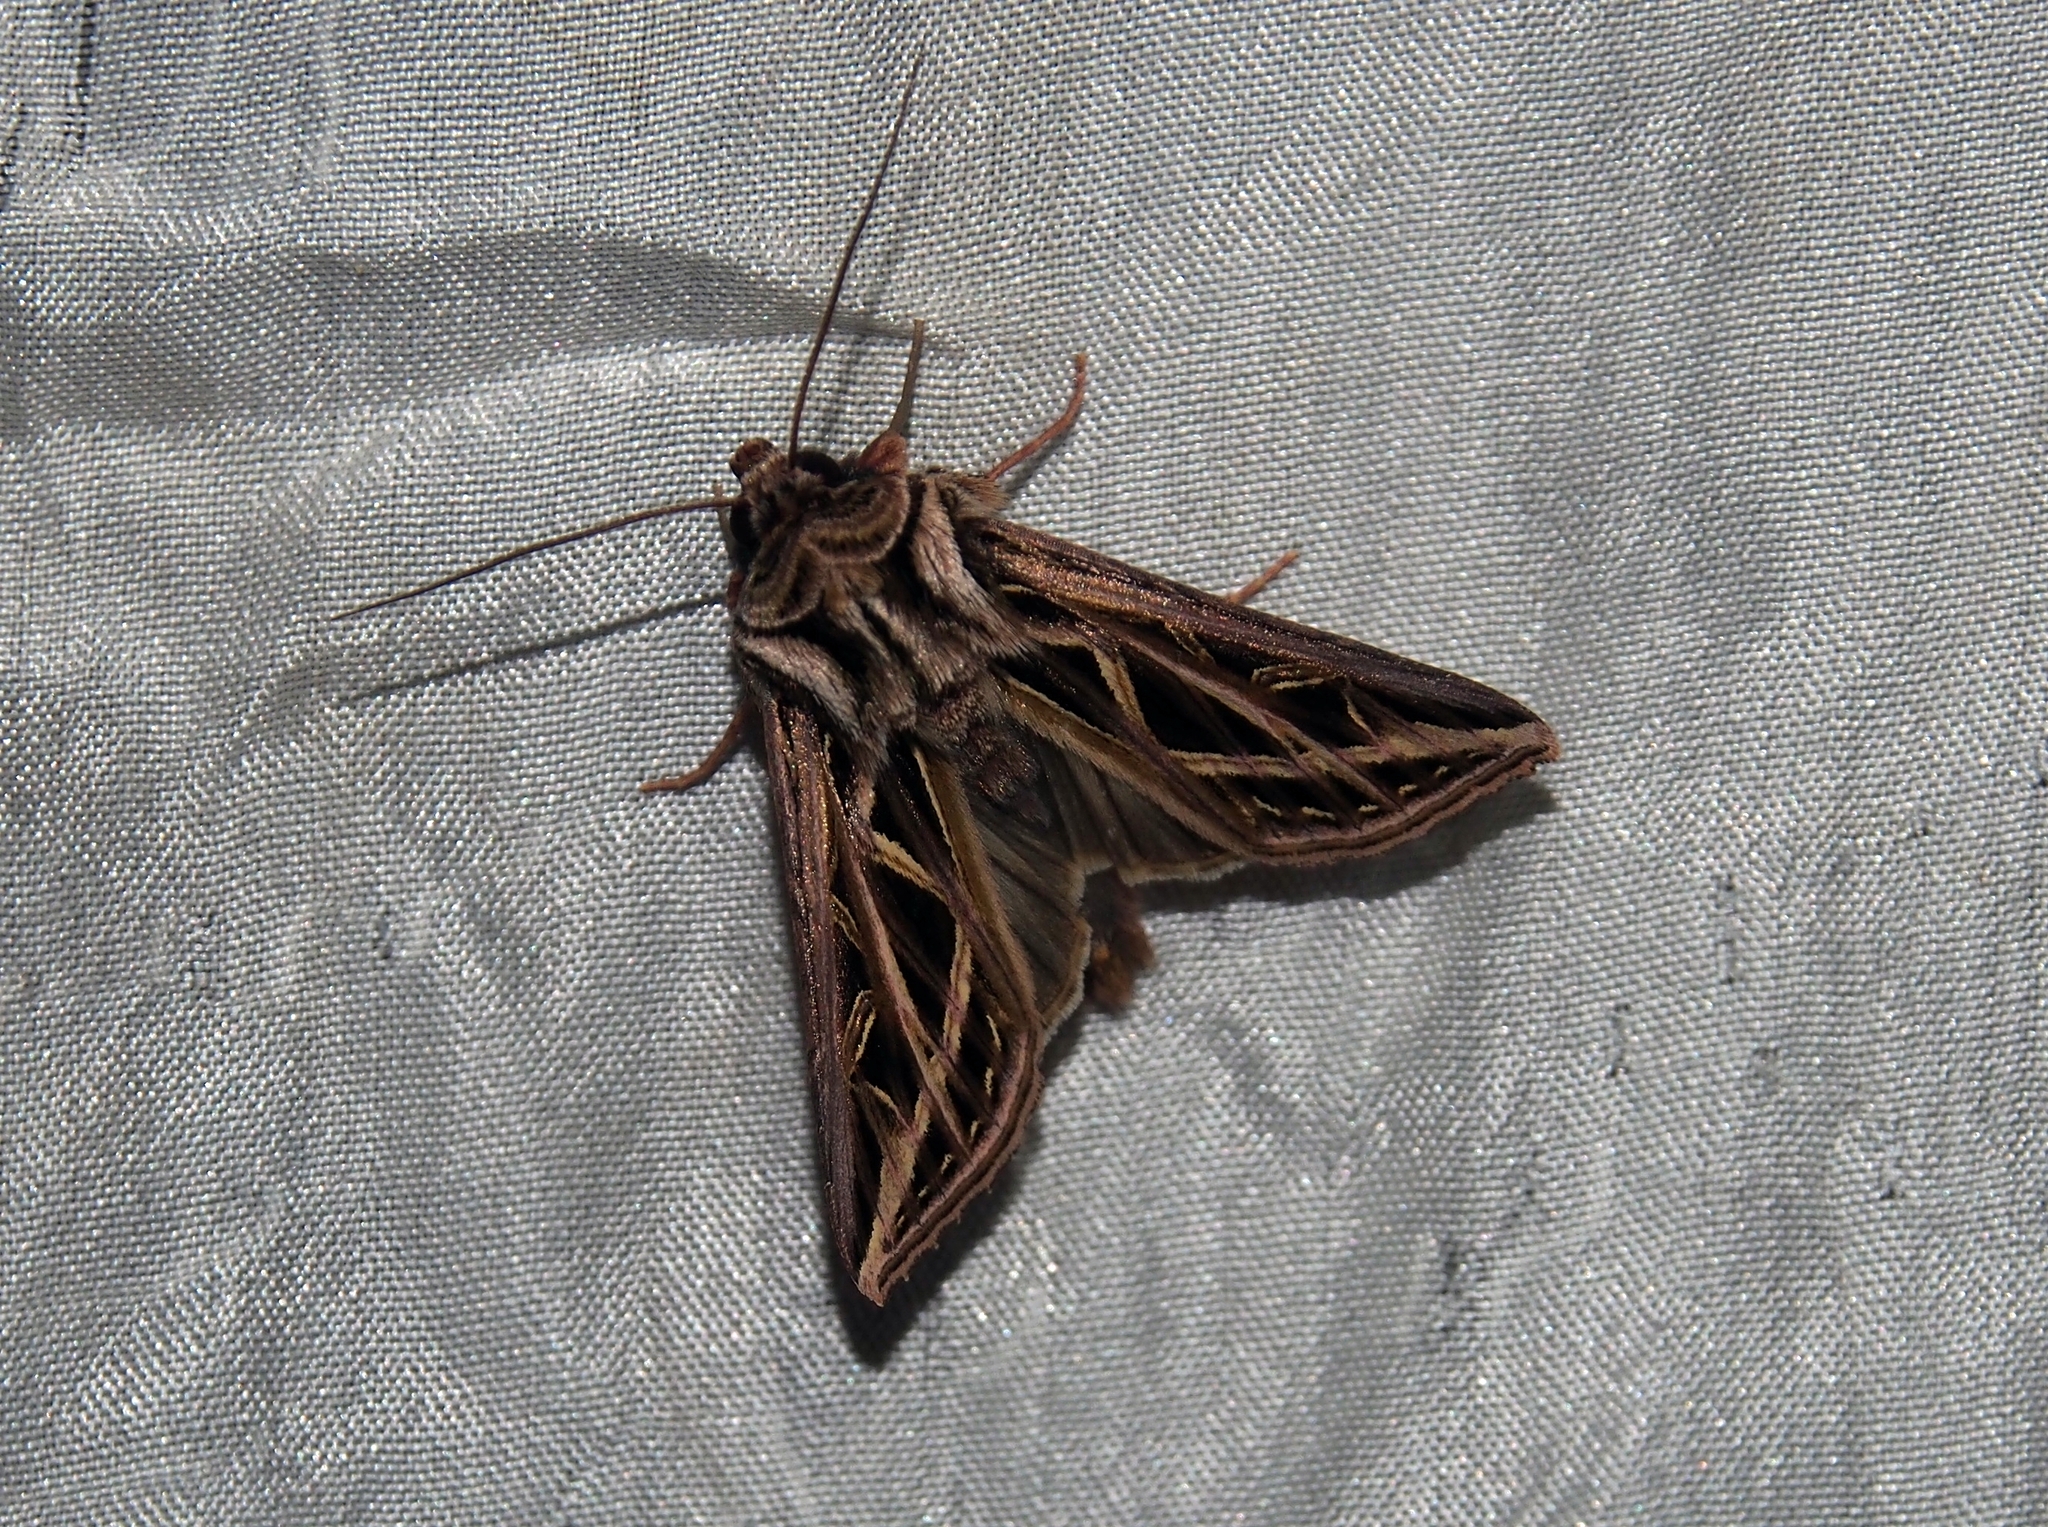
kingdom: Animalia
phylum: Arthropoda
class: Insecta
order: Lepidoptera
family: Noctuidae
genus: Dargida
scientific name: Dargida juxta
